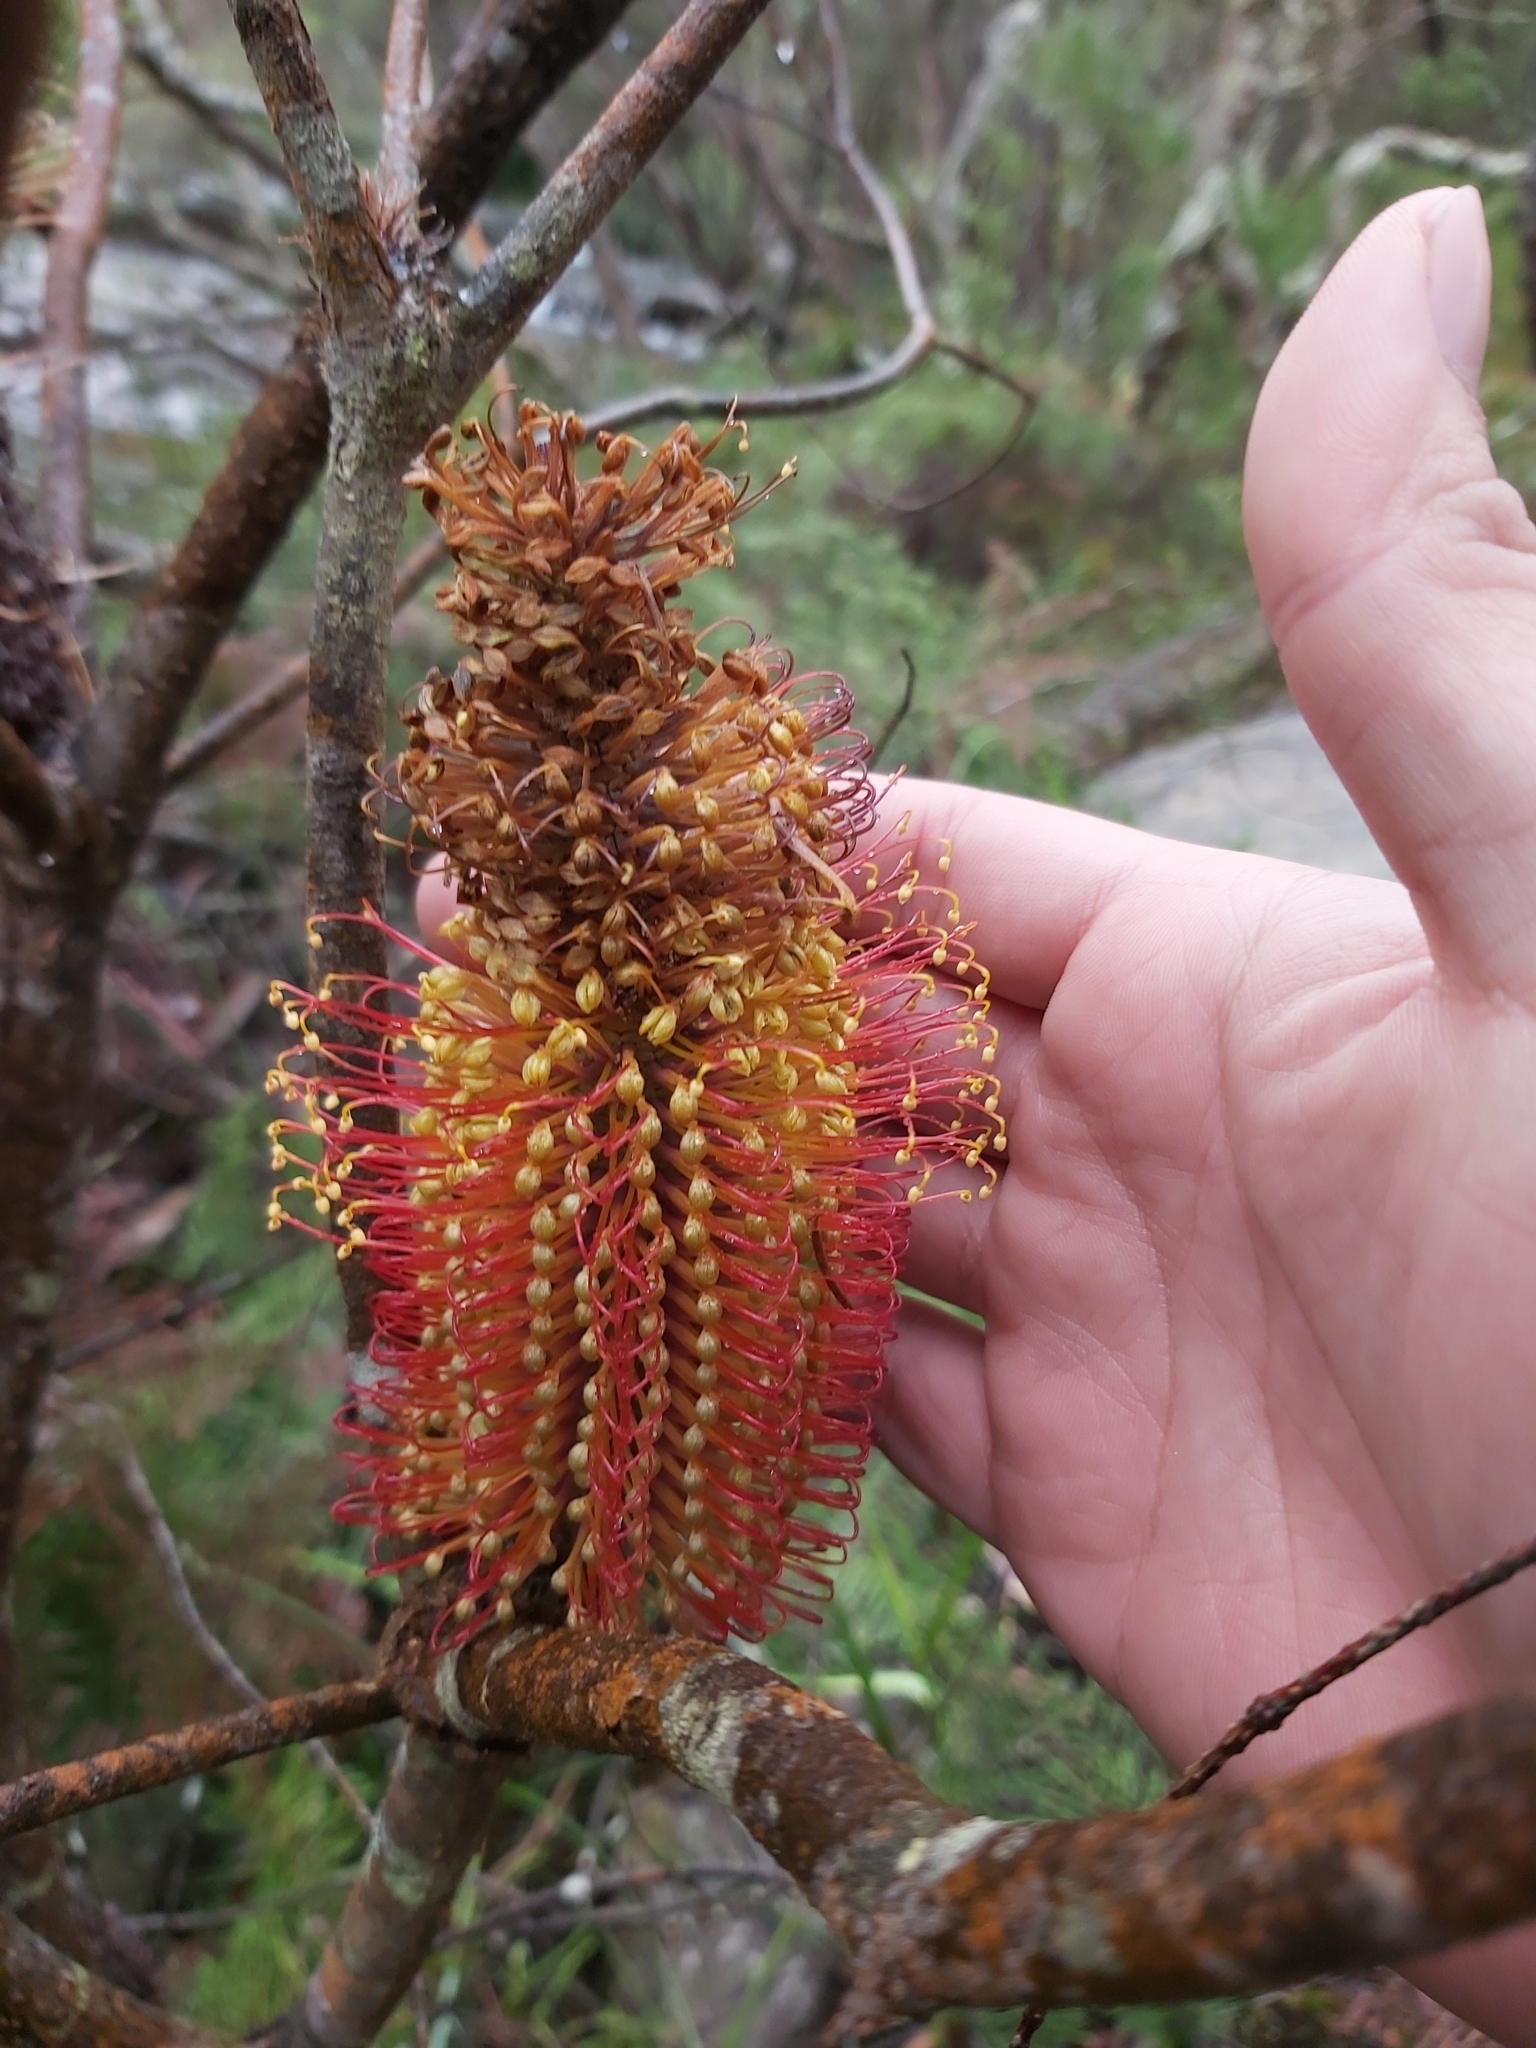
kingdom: Plantae
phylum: Tracheophyta
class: Magnoliopsida
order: Proteales
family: Proteaceae
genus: Banksia
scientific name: Banksia ericifolia
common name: Heath-leaf banksia
